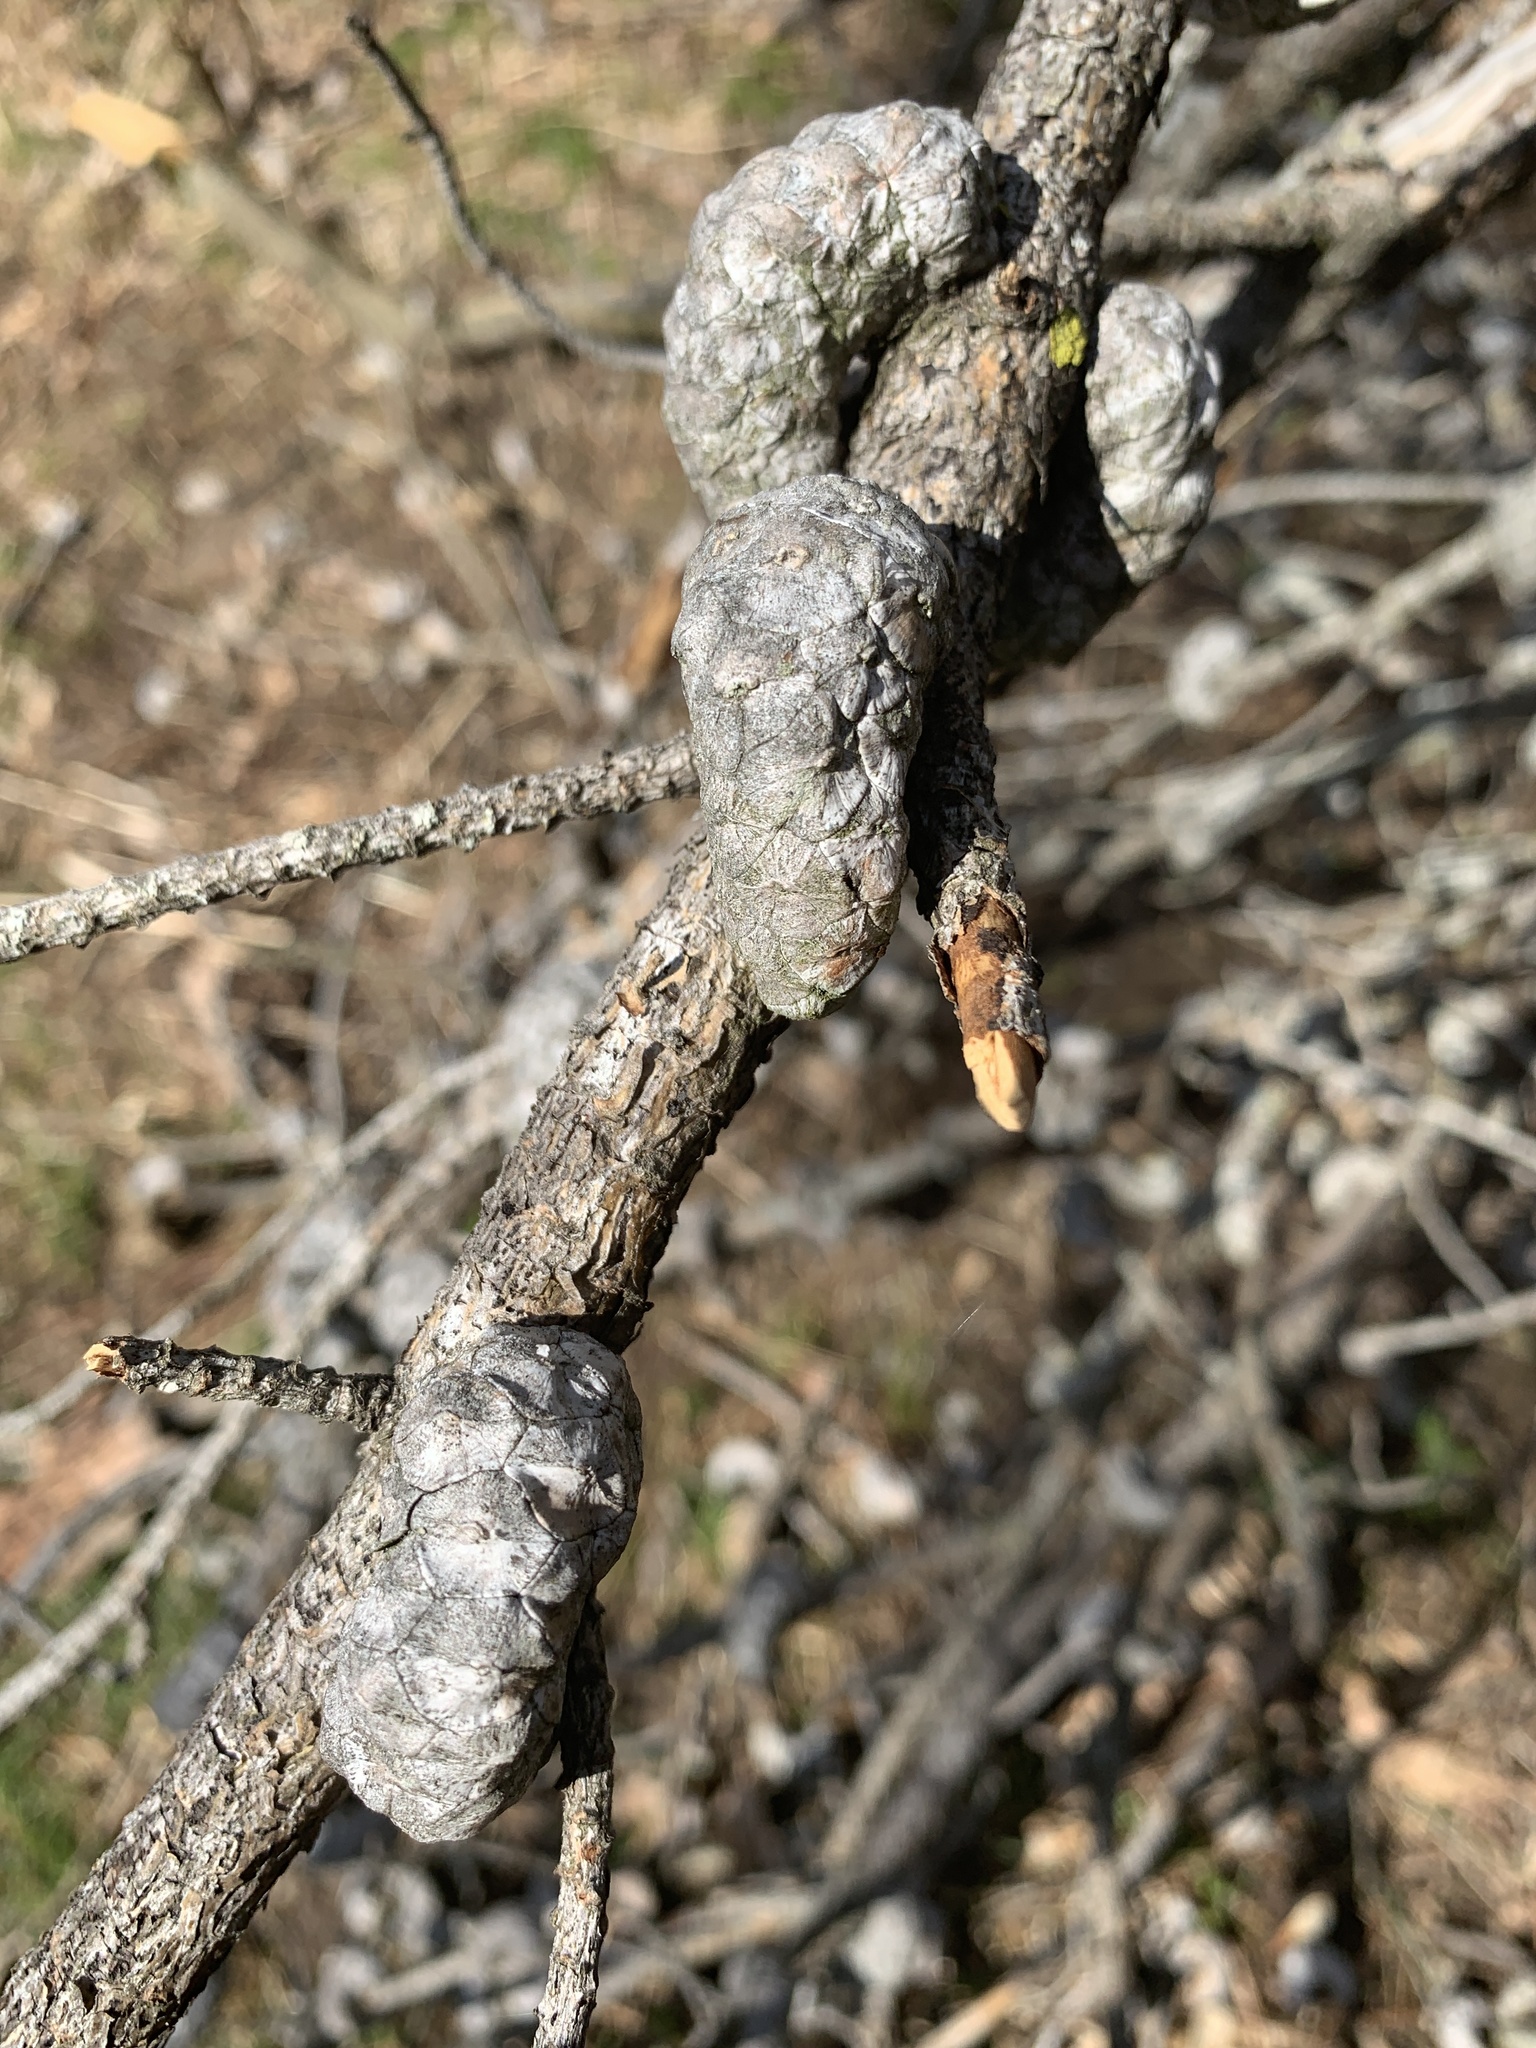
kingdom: Plantae
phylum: Tracheophyta
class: Pinopsida
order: Pinales
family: Pinaceae
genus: Pinus
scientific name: Pinus banksiana
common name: Jack pine
